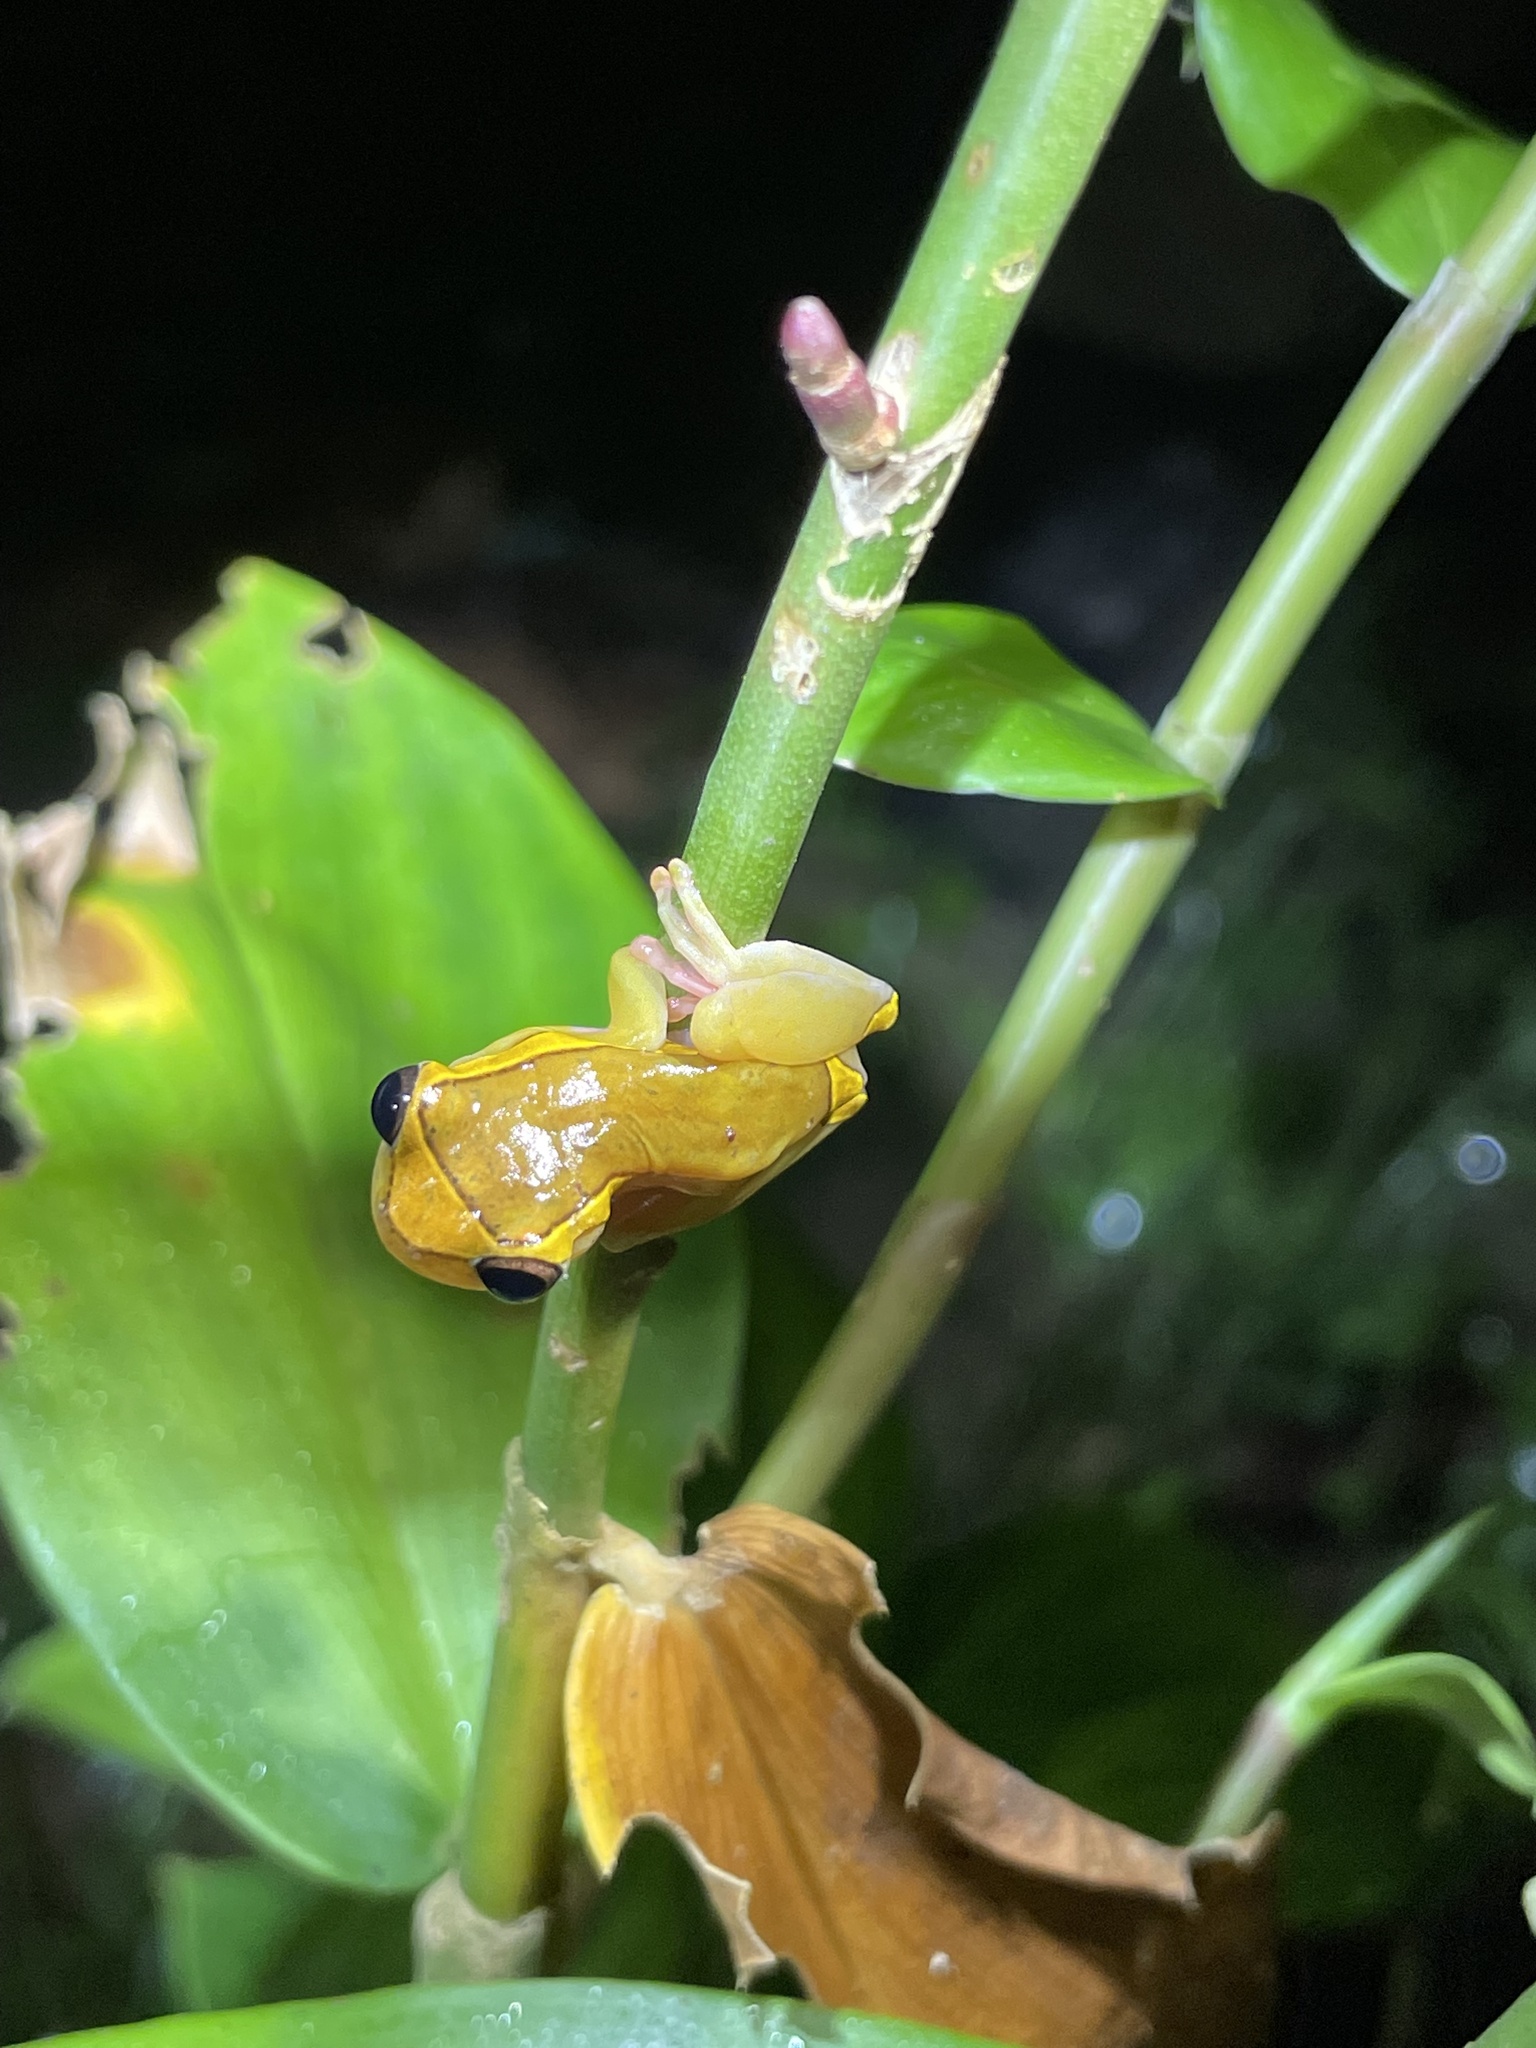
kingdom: Animalia
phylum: Chordata
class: Amphibia
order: Anura
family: Hylidae
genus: Dendropsophus
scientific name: Dendropsophus bifurcus
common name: Two-lined treefrog
